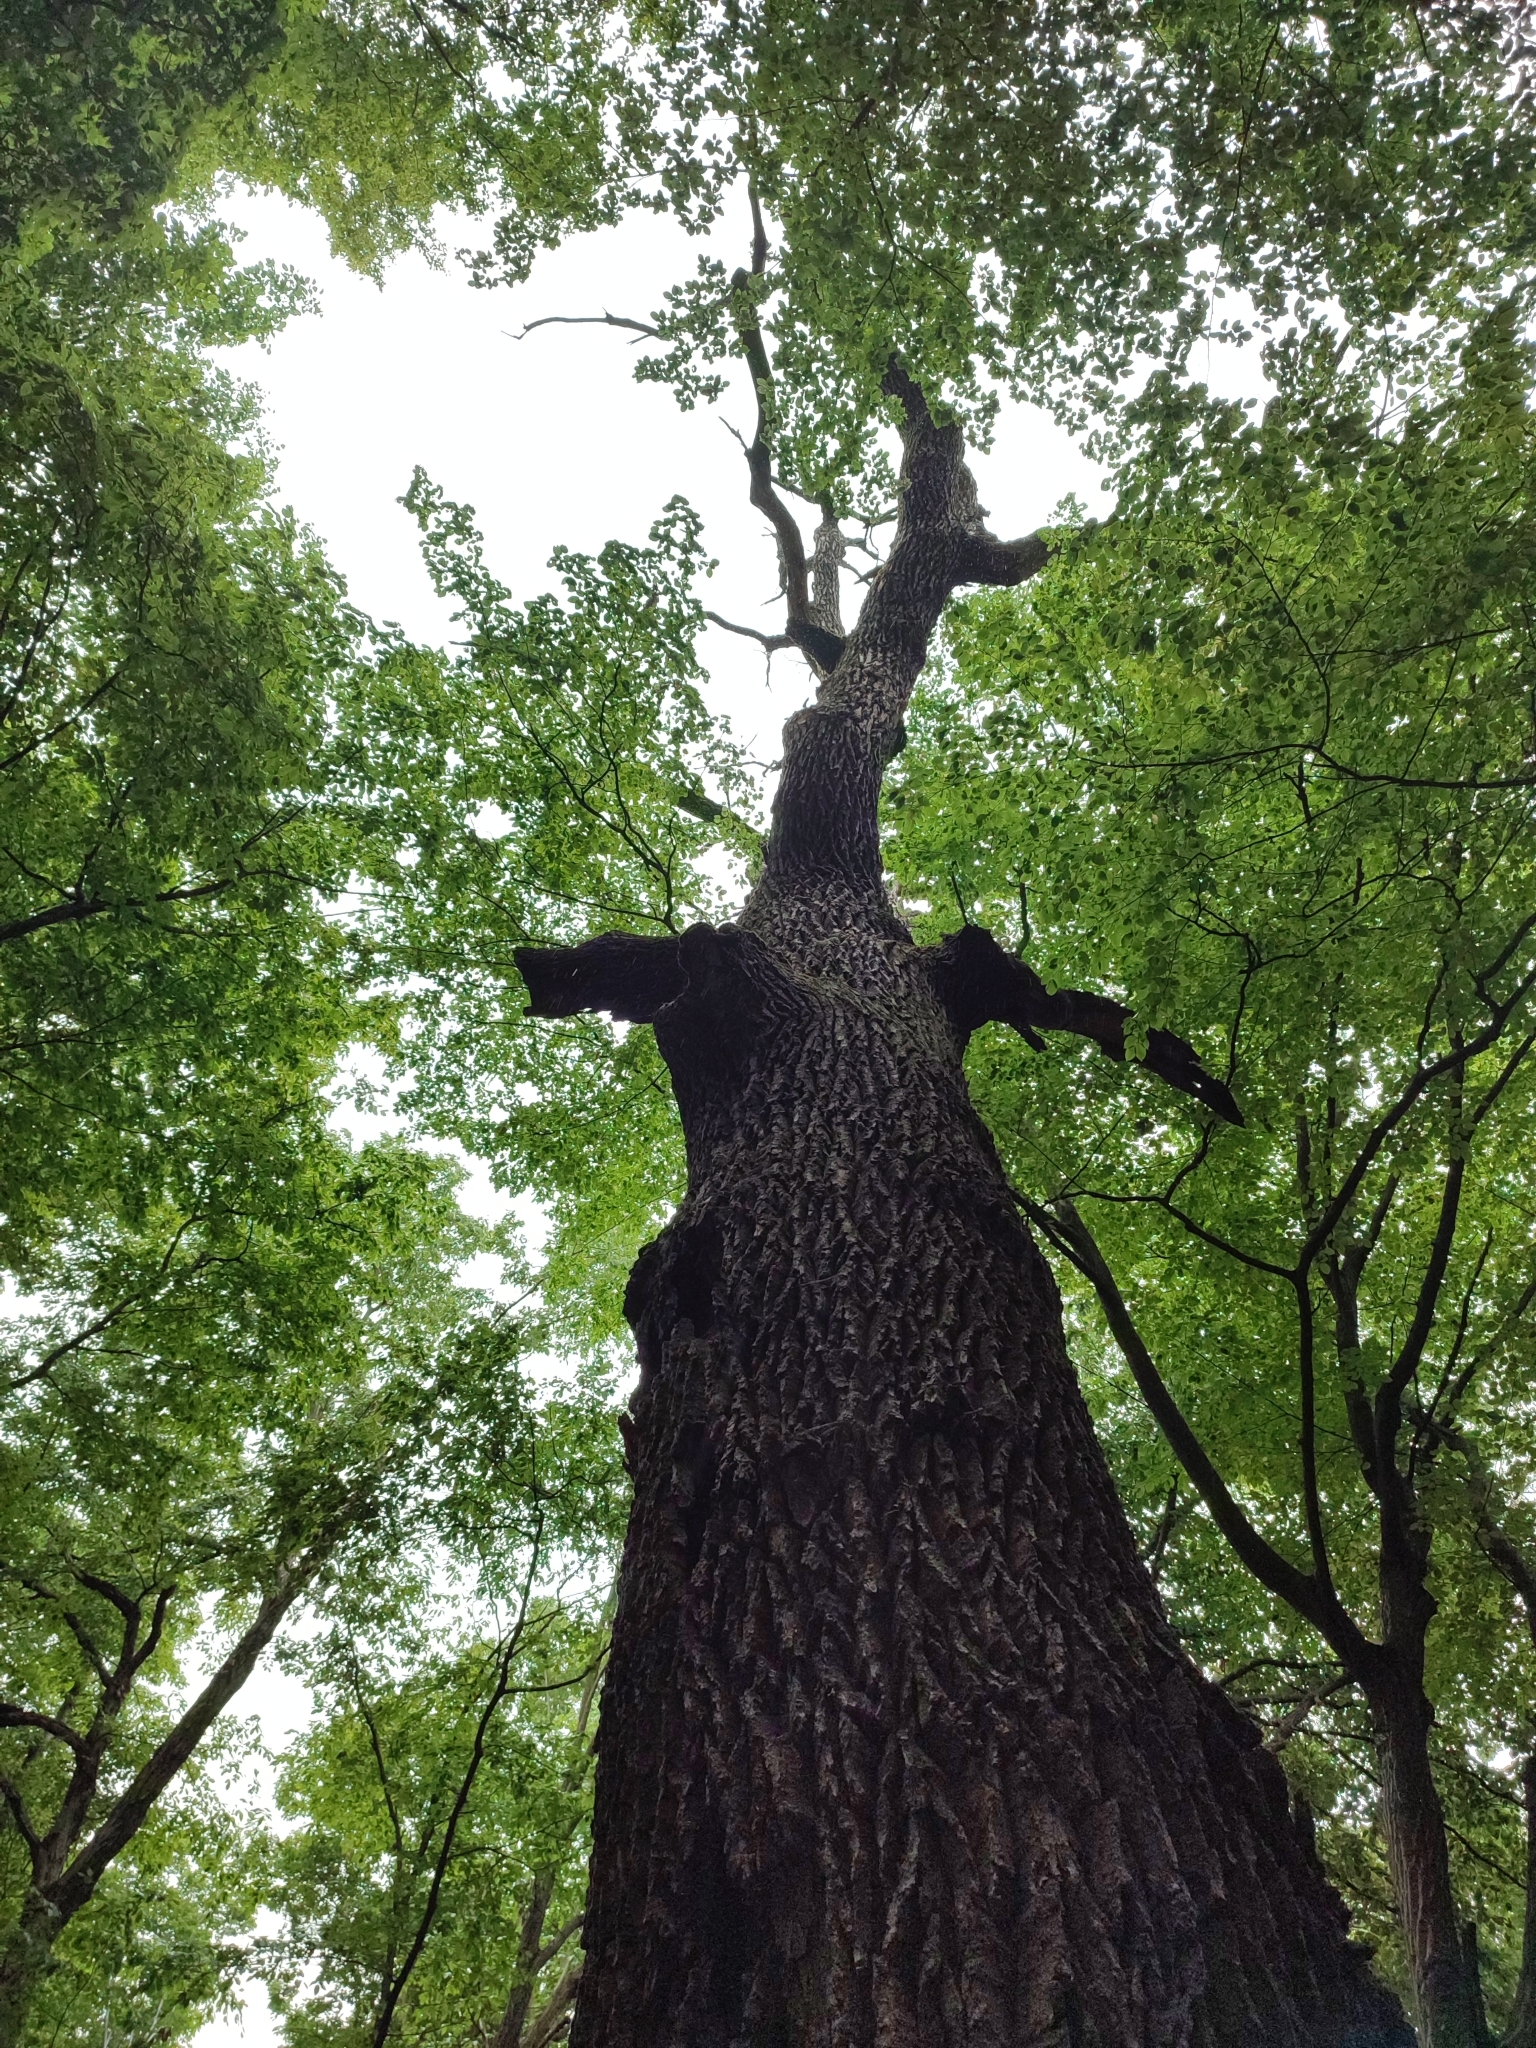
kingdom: Plantae
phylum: Tracheophyta
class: Magnoliopsida
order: Fagales
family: Fagaceae
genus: Quercus
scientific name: Quercus robur
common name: Pedunculate oak
